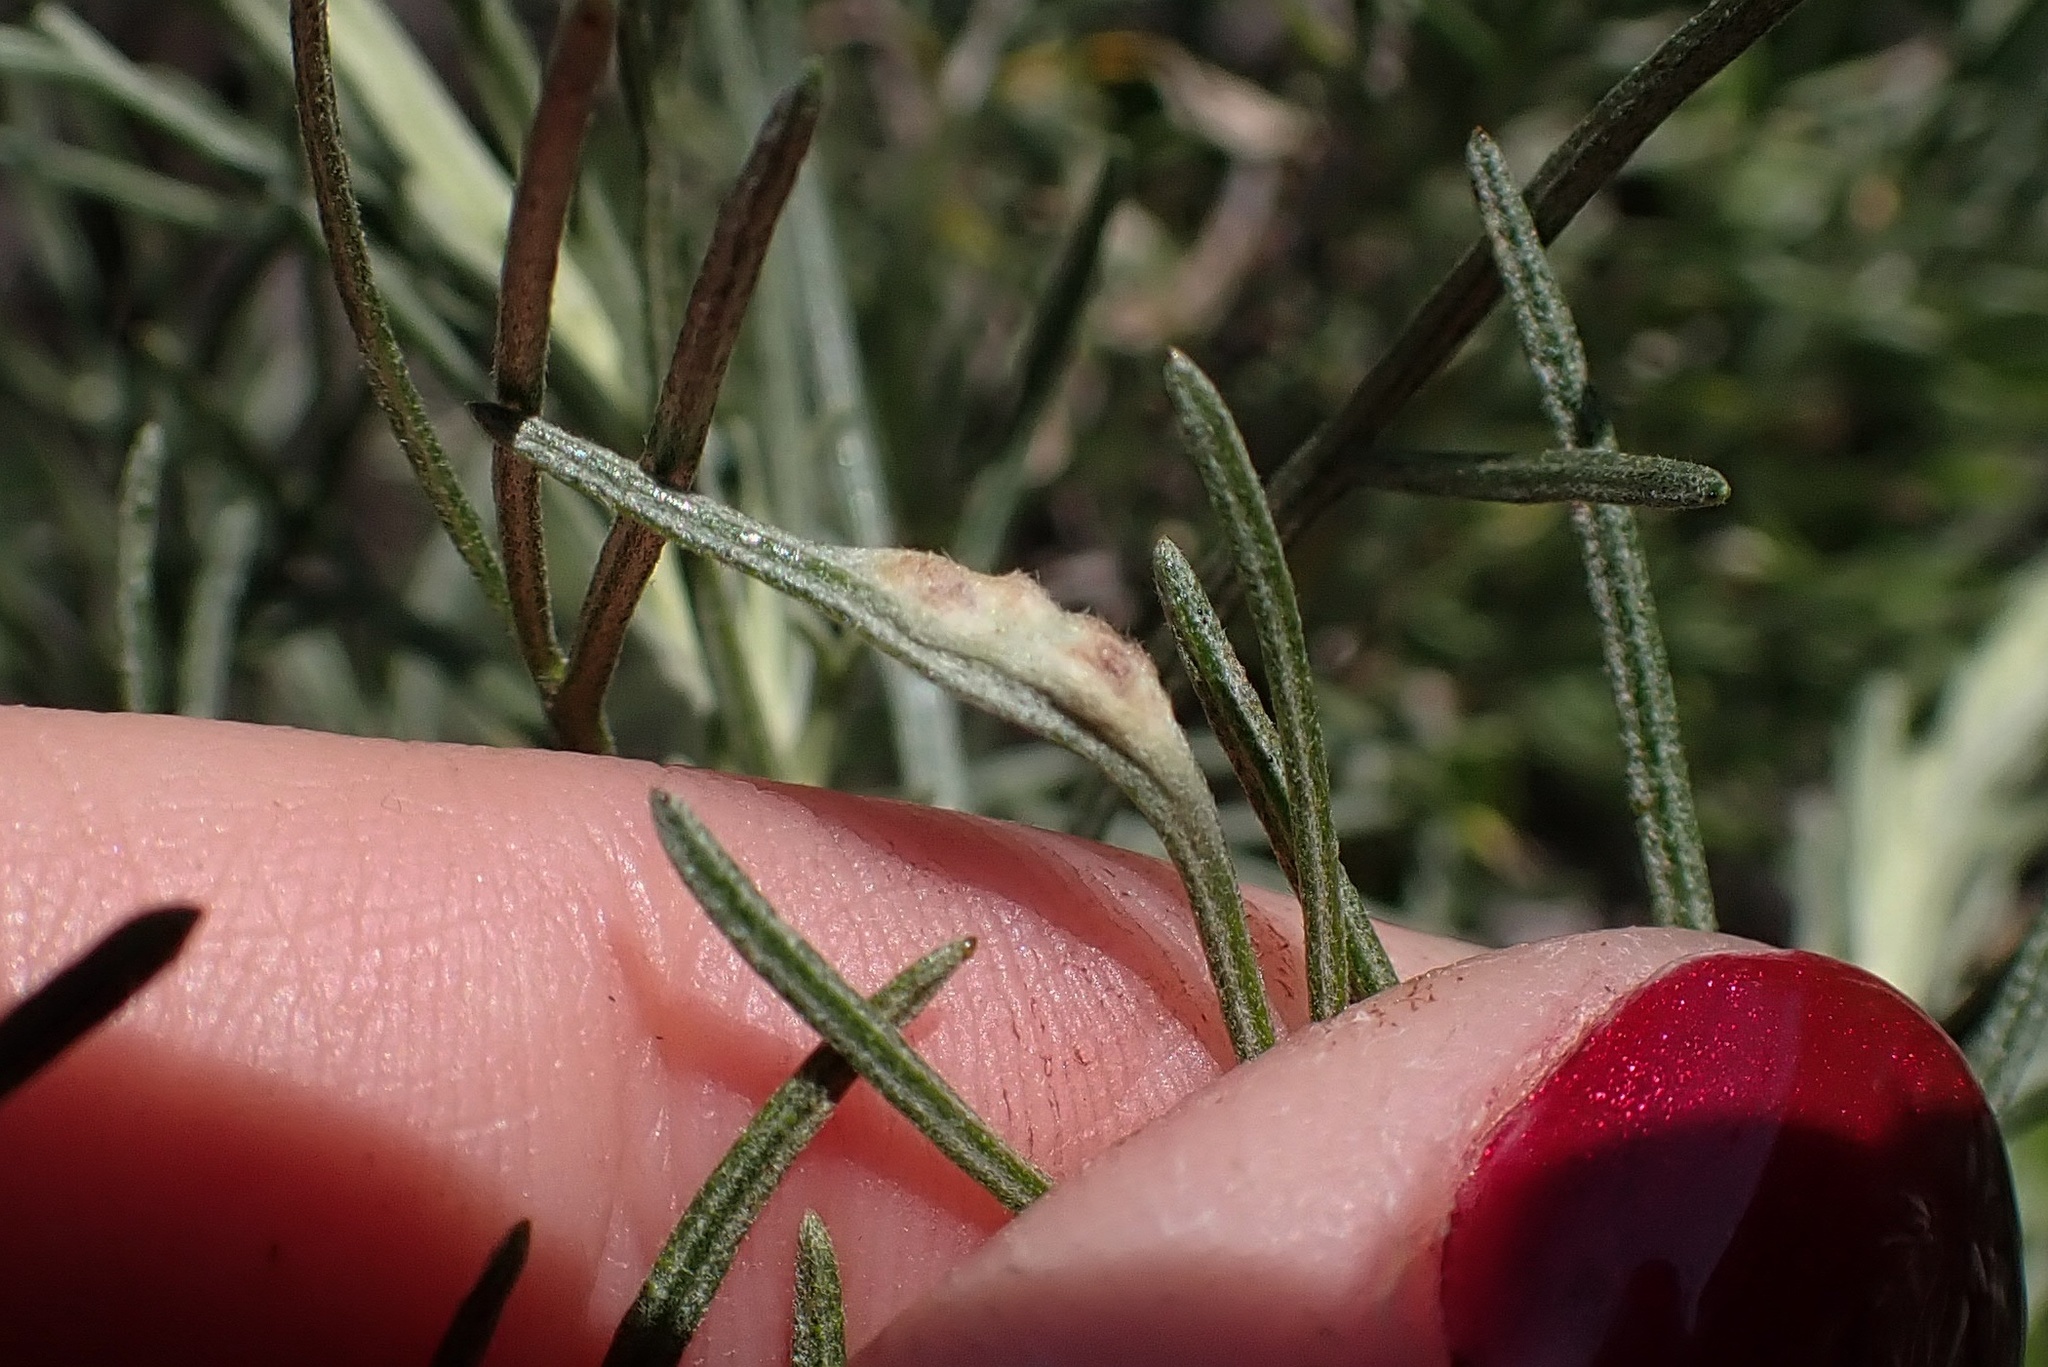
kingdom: Animalia
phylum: Arthropoda
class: Arachnida
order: Trombidiformes
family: Eriophyidae
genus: Aceria
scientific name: Aceria
